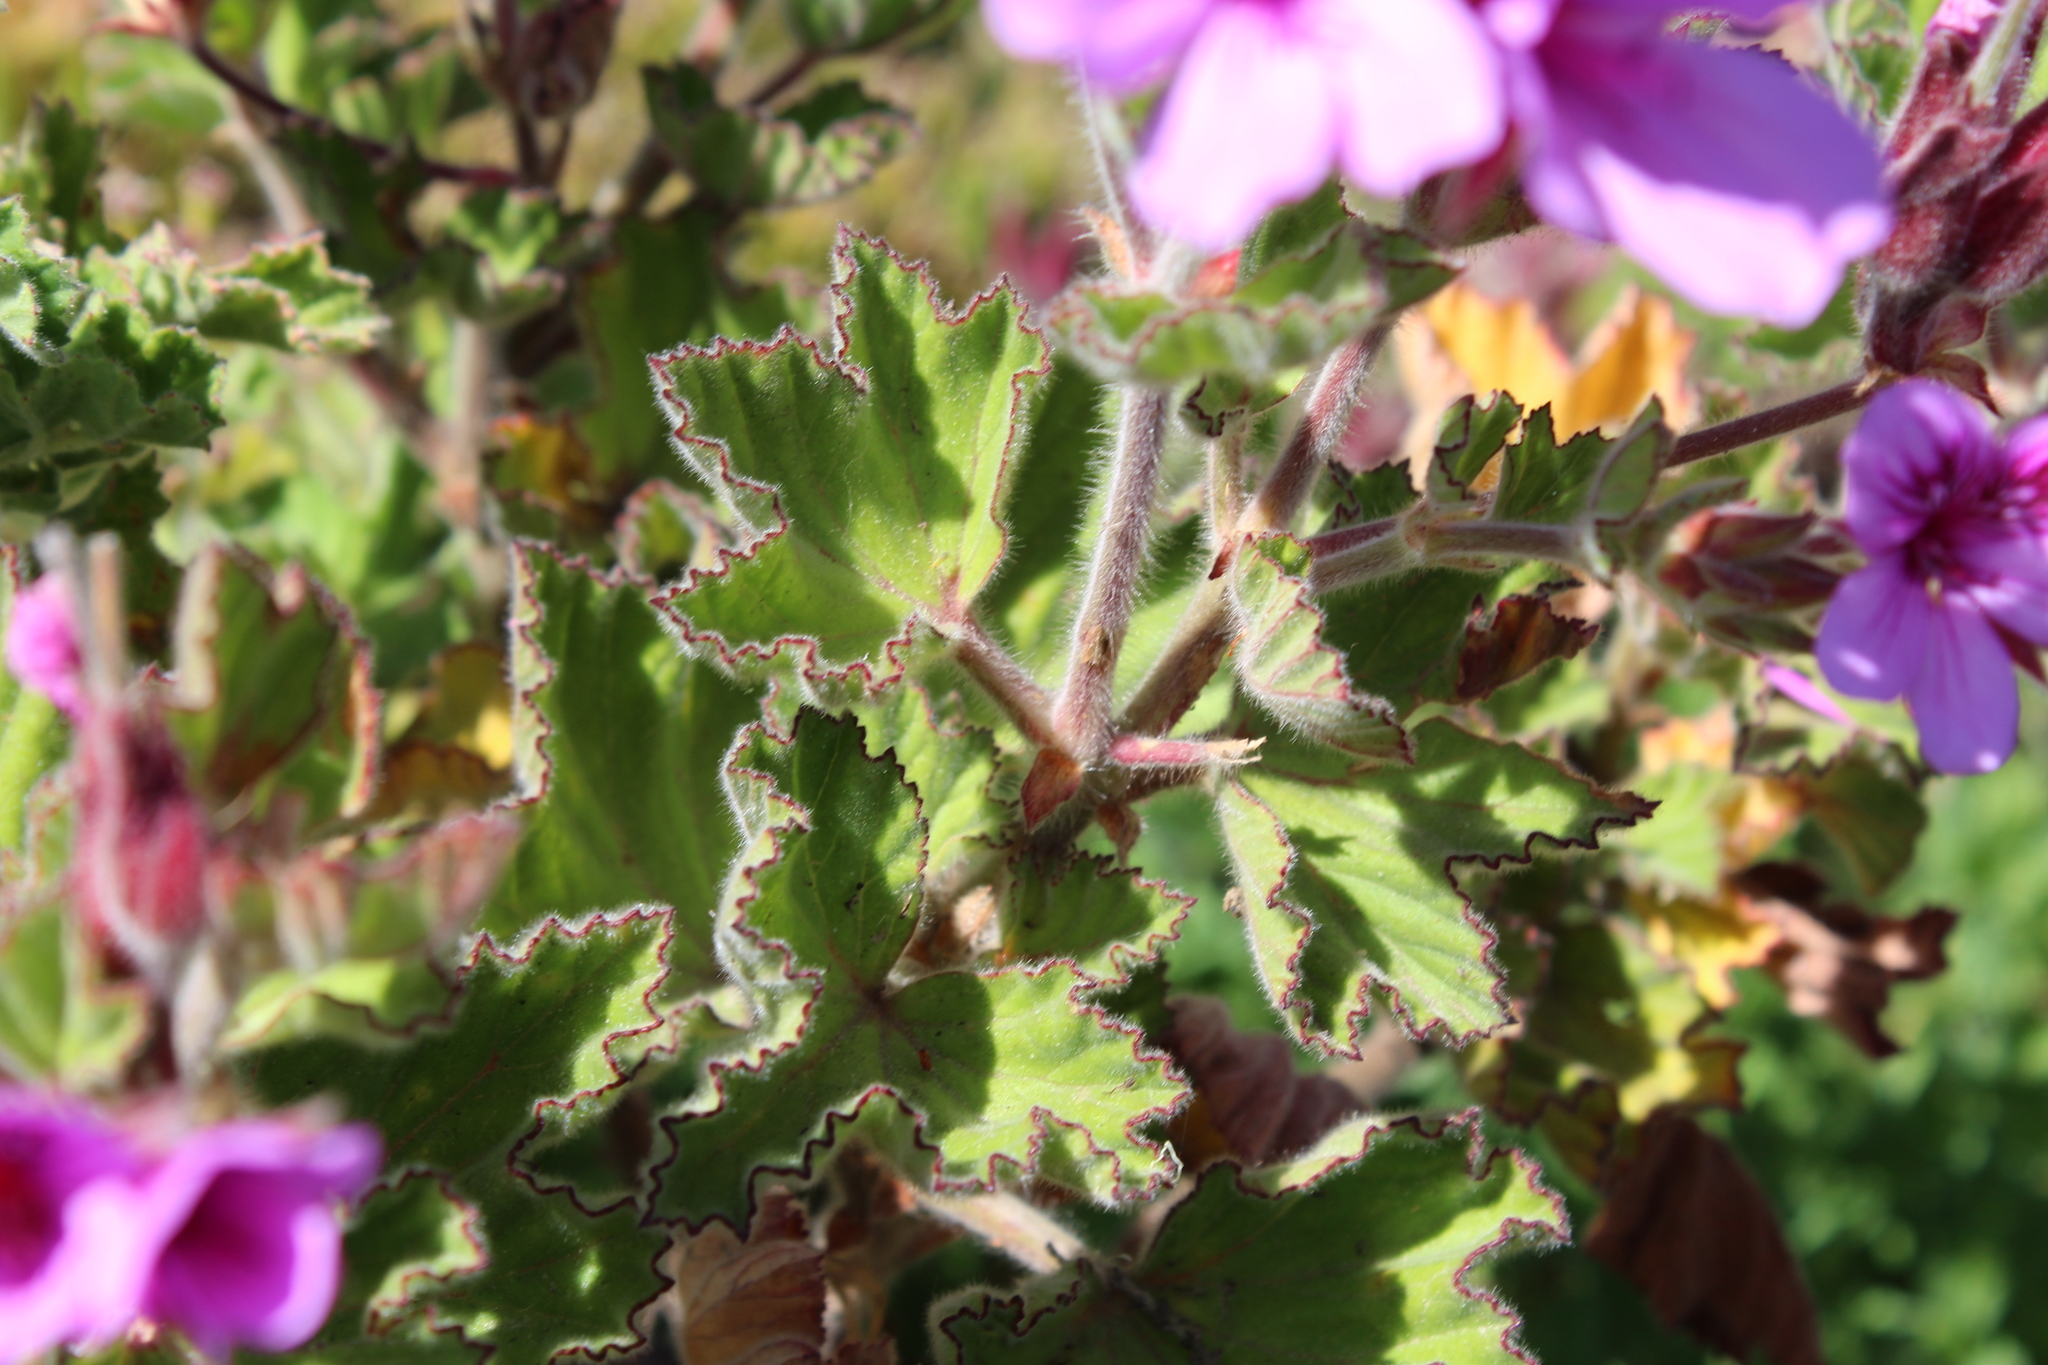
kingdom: Plantae
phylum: Tracheophyta
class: Magnoliopsida
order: Geraniales
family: Geraniaceae
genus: Pelargonium
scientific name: Pelargonium cucullatum
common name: Tree pelargonium
